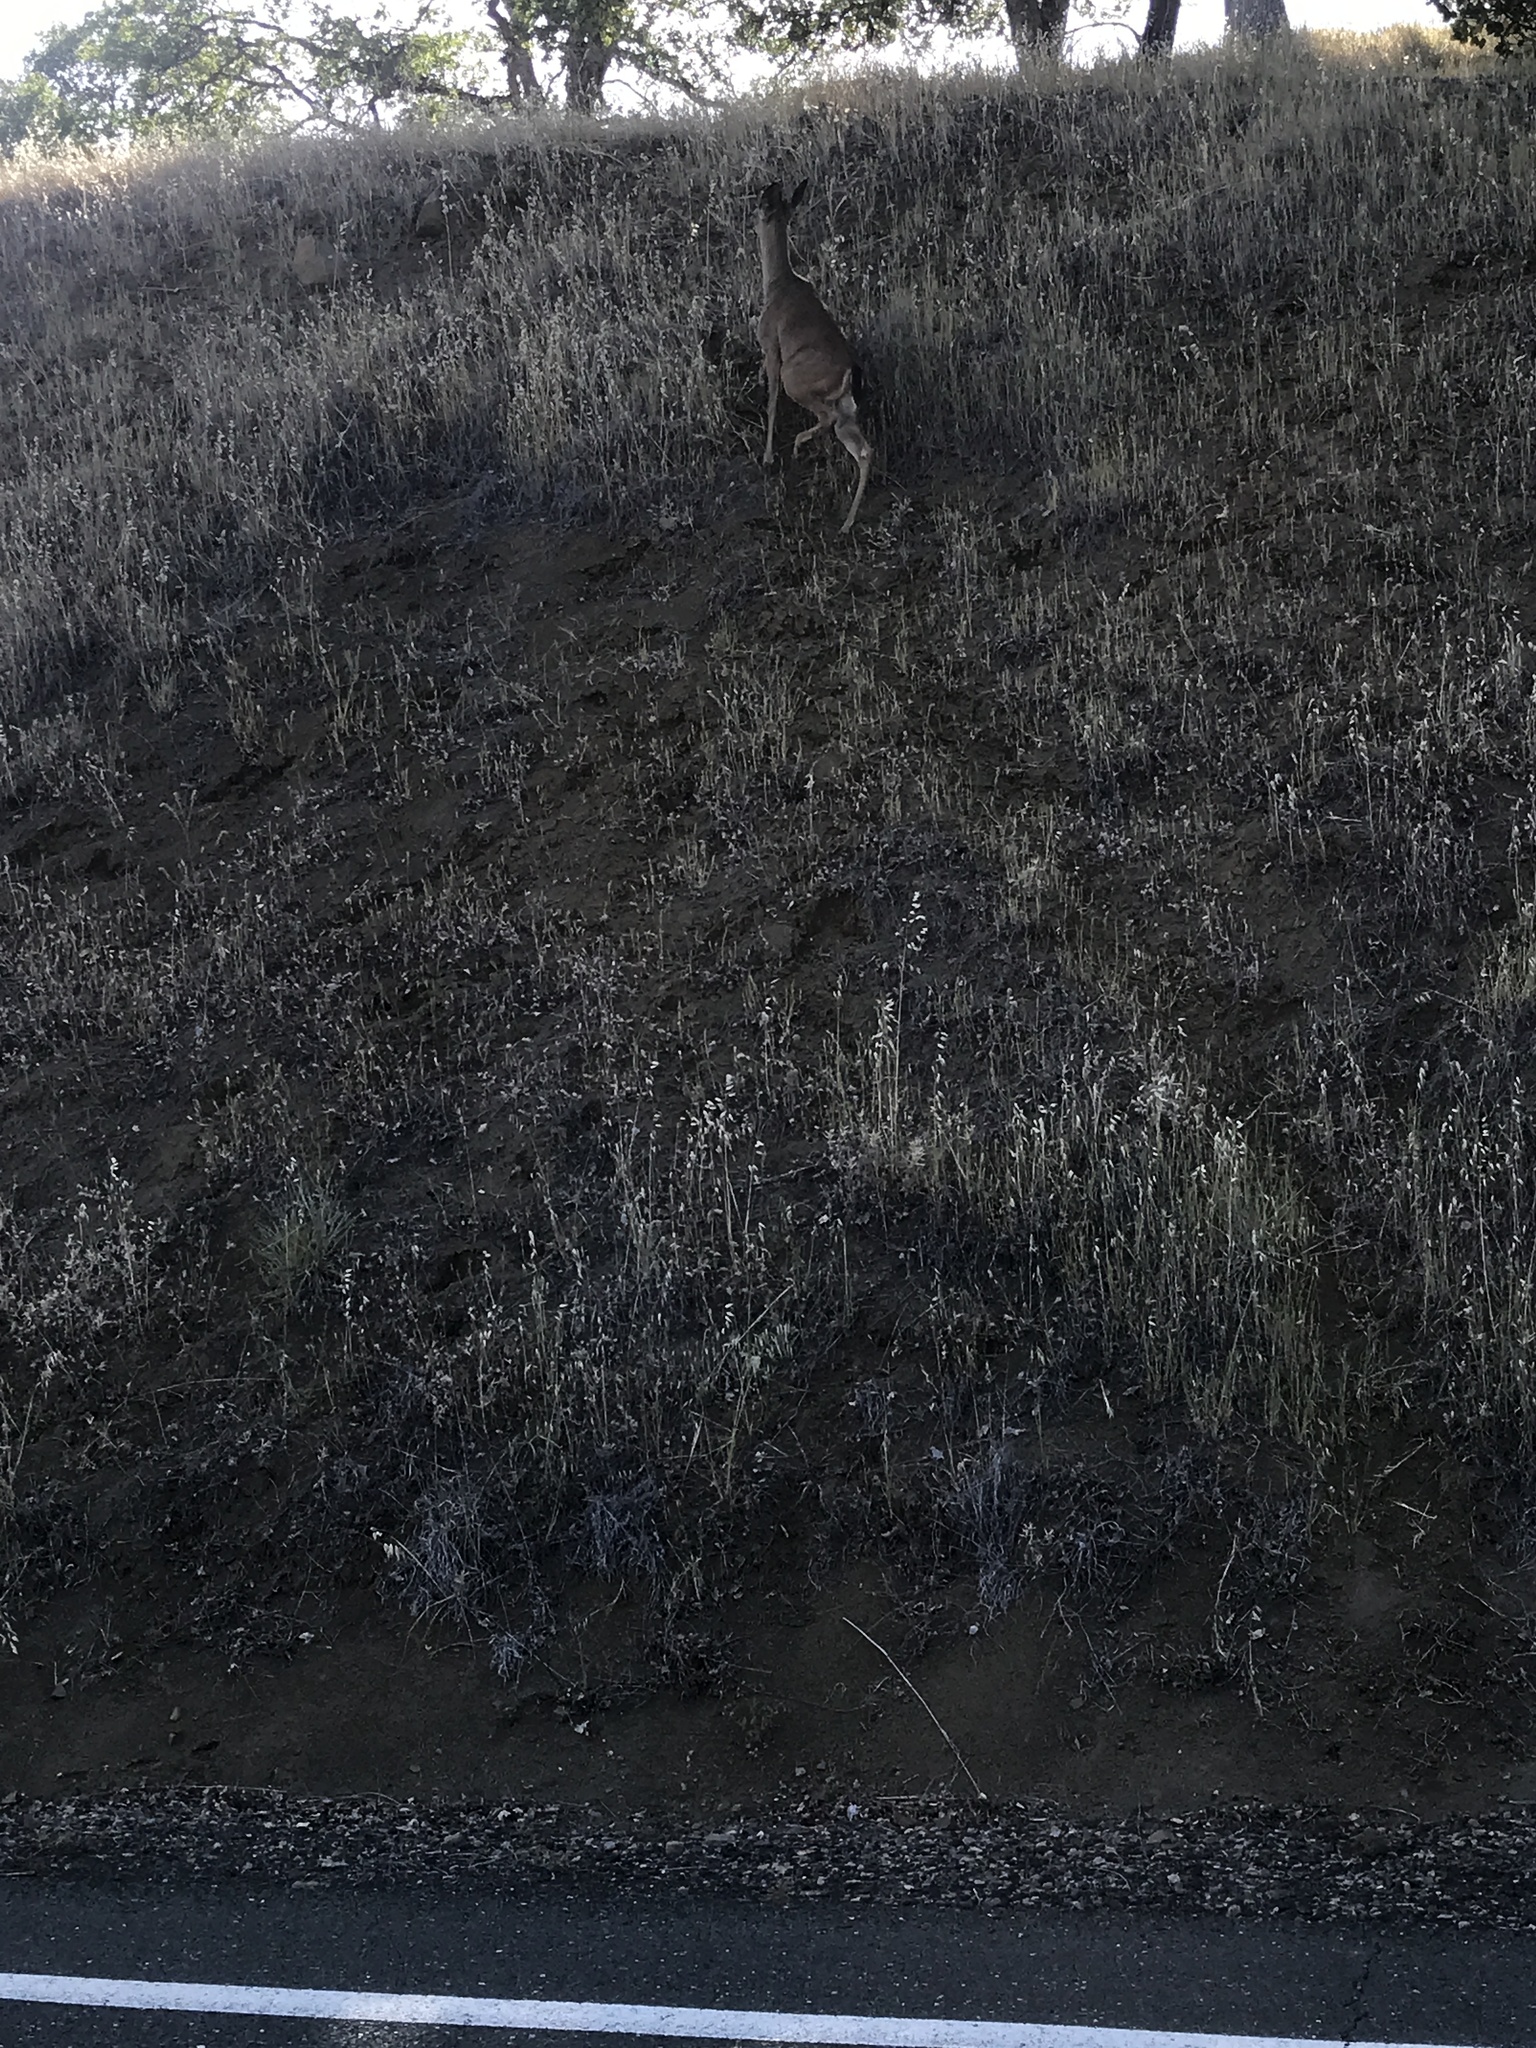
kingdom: Animalia
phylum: Chordata
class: Mammalia
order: Artiodactyla
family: Cervidae
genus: Odocoileus
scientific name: Odocoileus hemionus
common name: Mule deer
